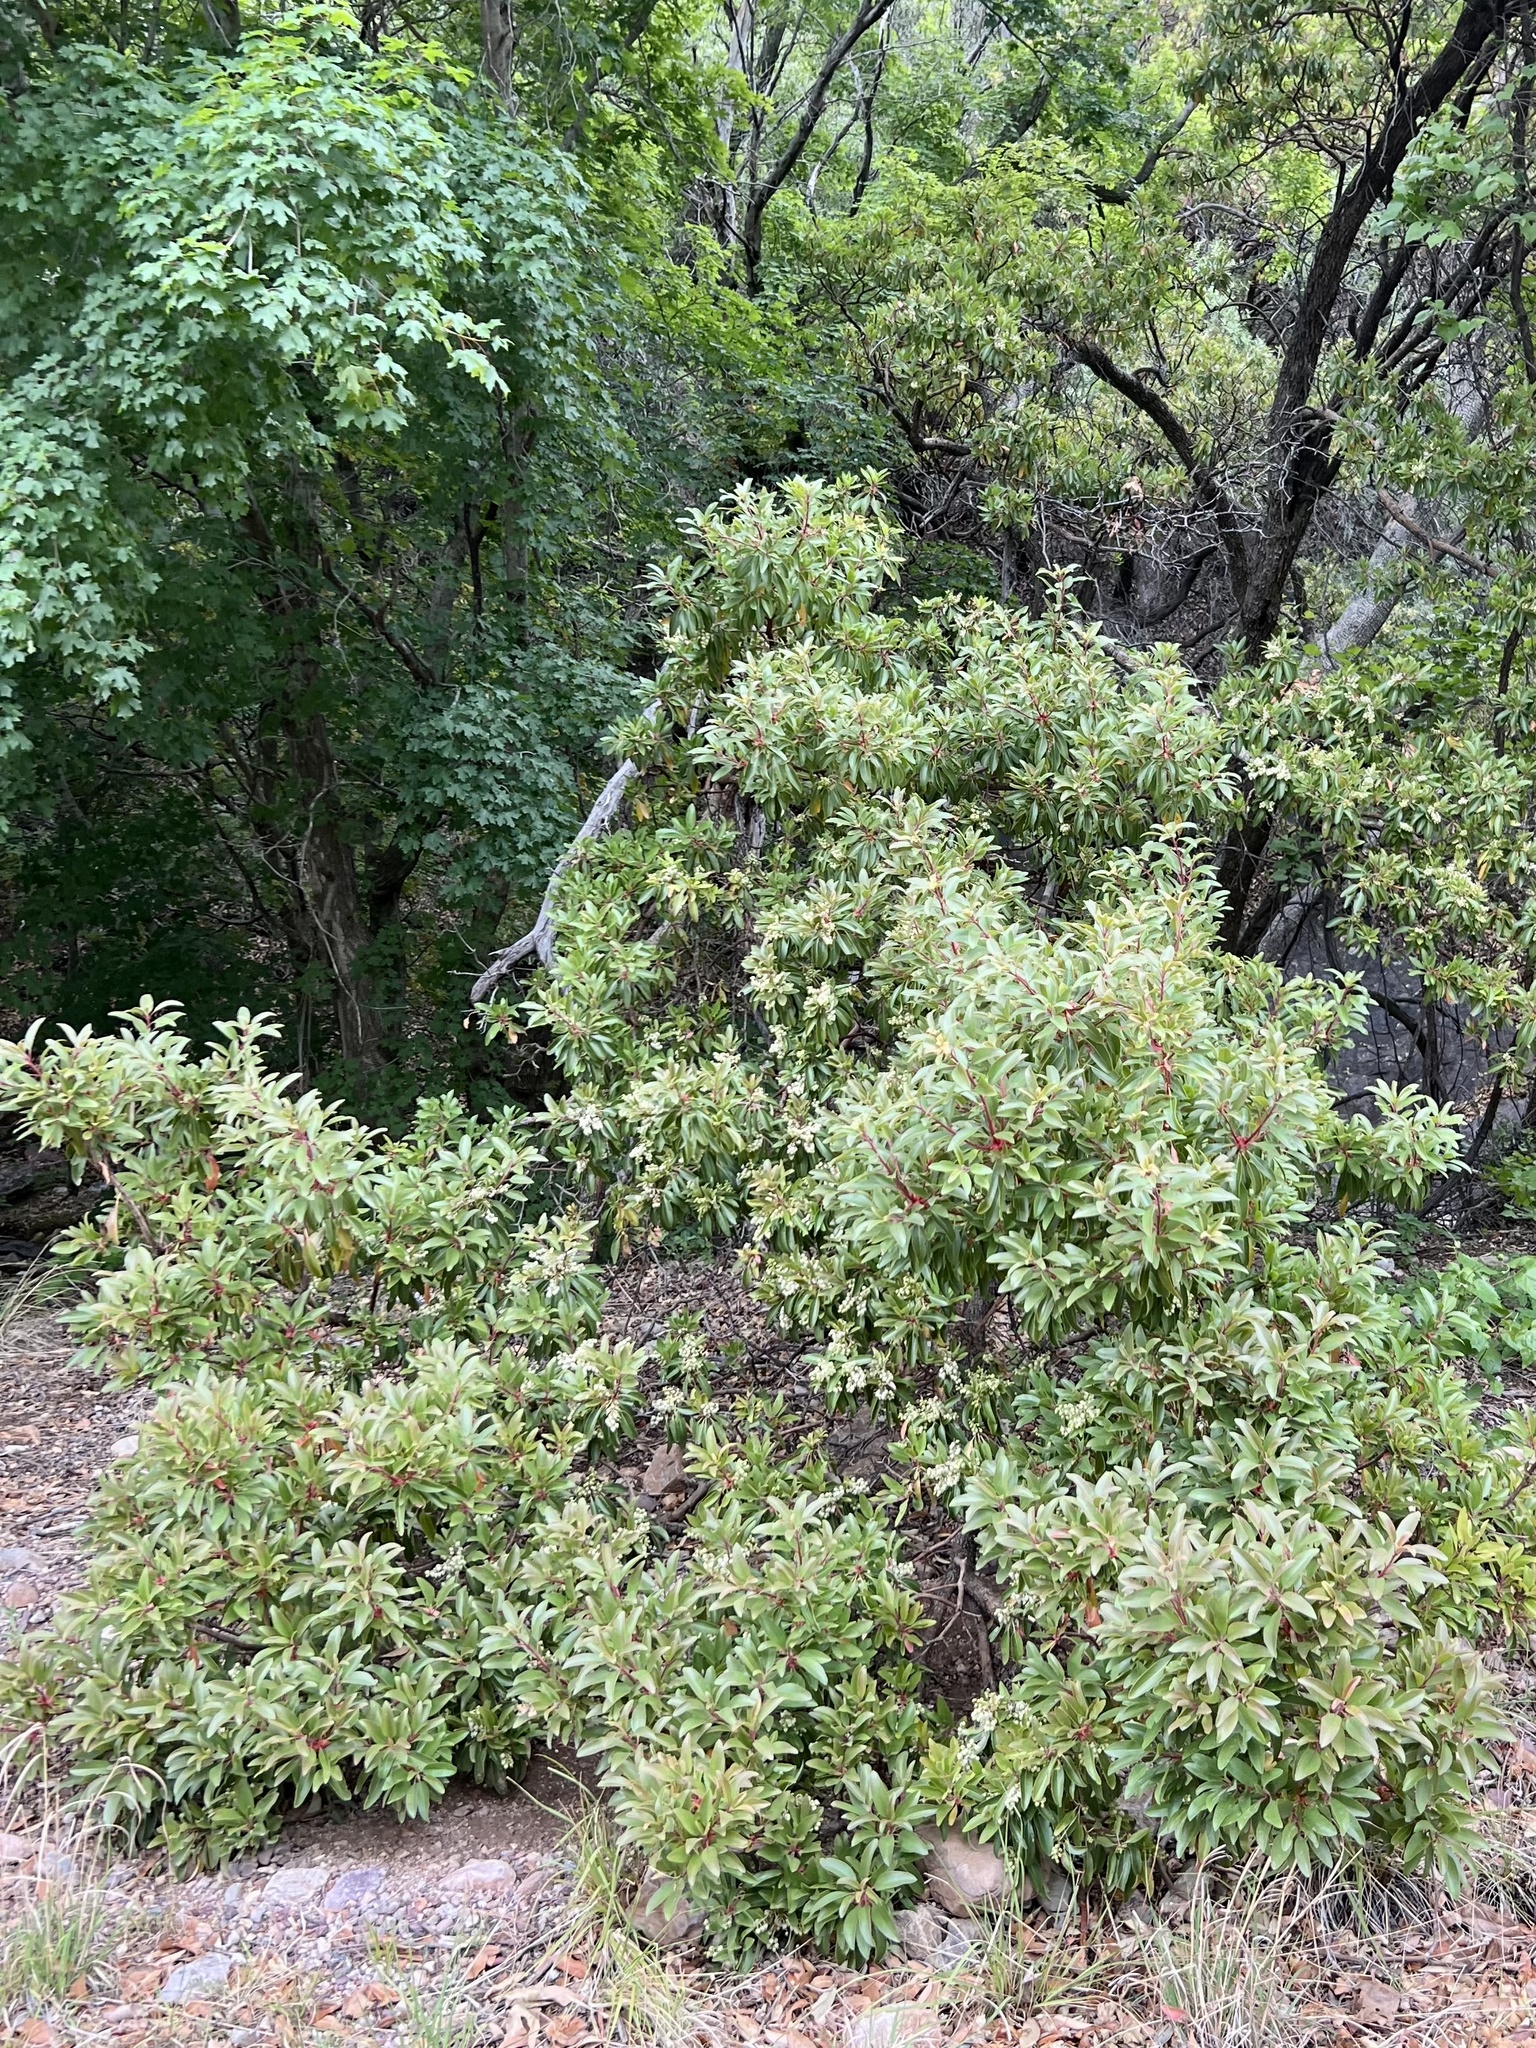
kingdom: Plantae
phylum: Tracheophyta
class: Magnoliopsida
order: Ericales
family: Ericaceae
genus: Arbutus
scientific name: Arbutus arizonica
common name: Arizona madrone
